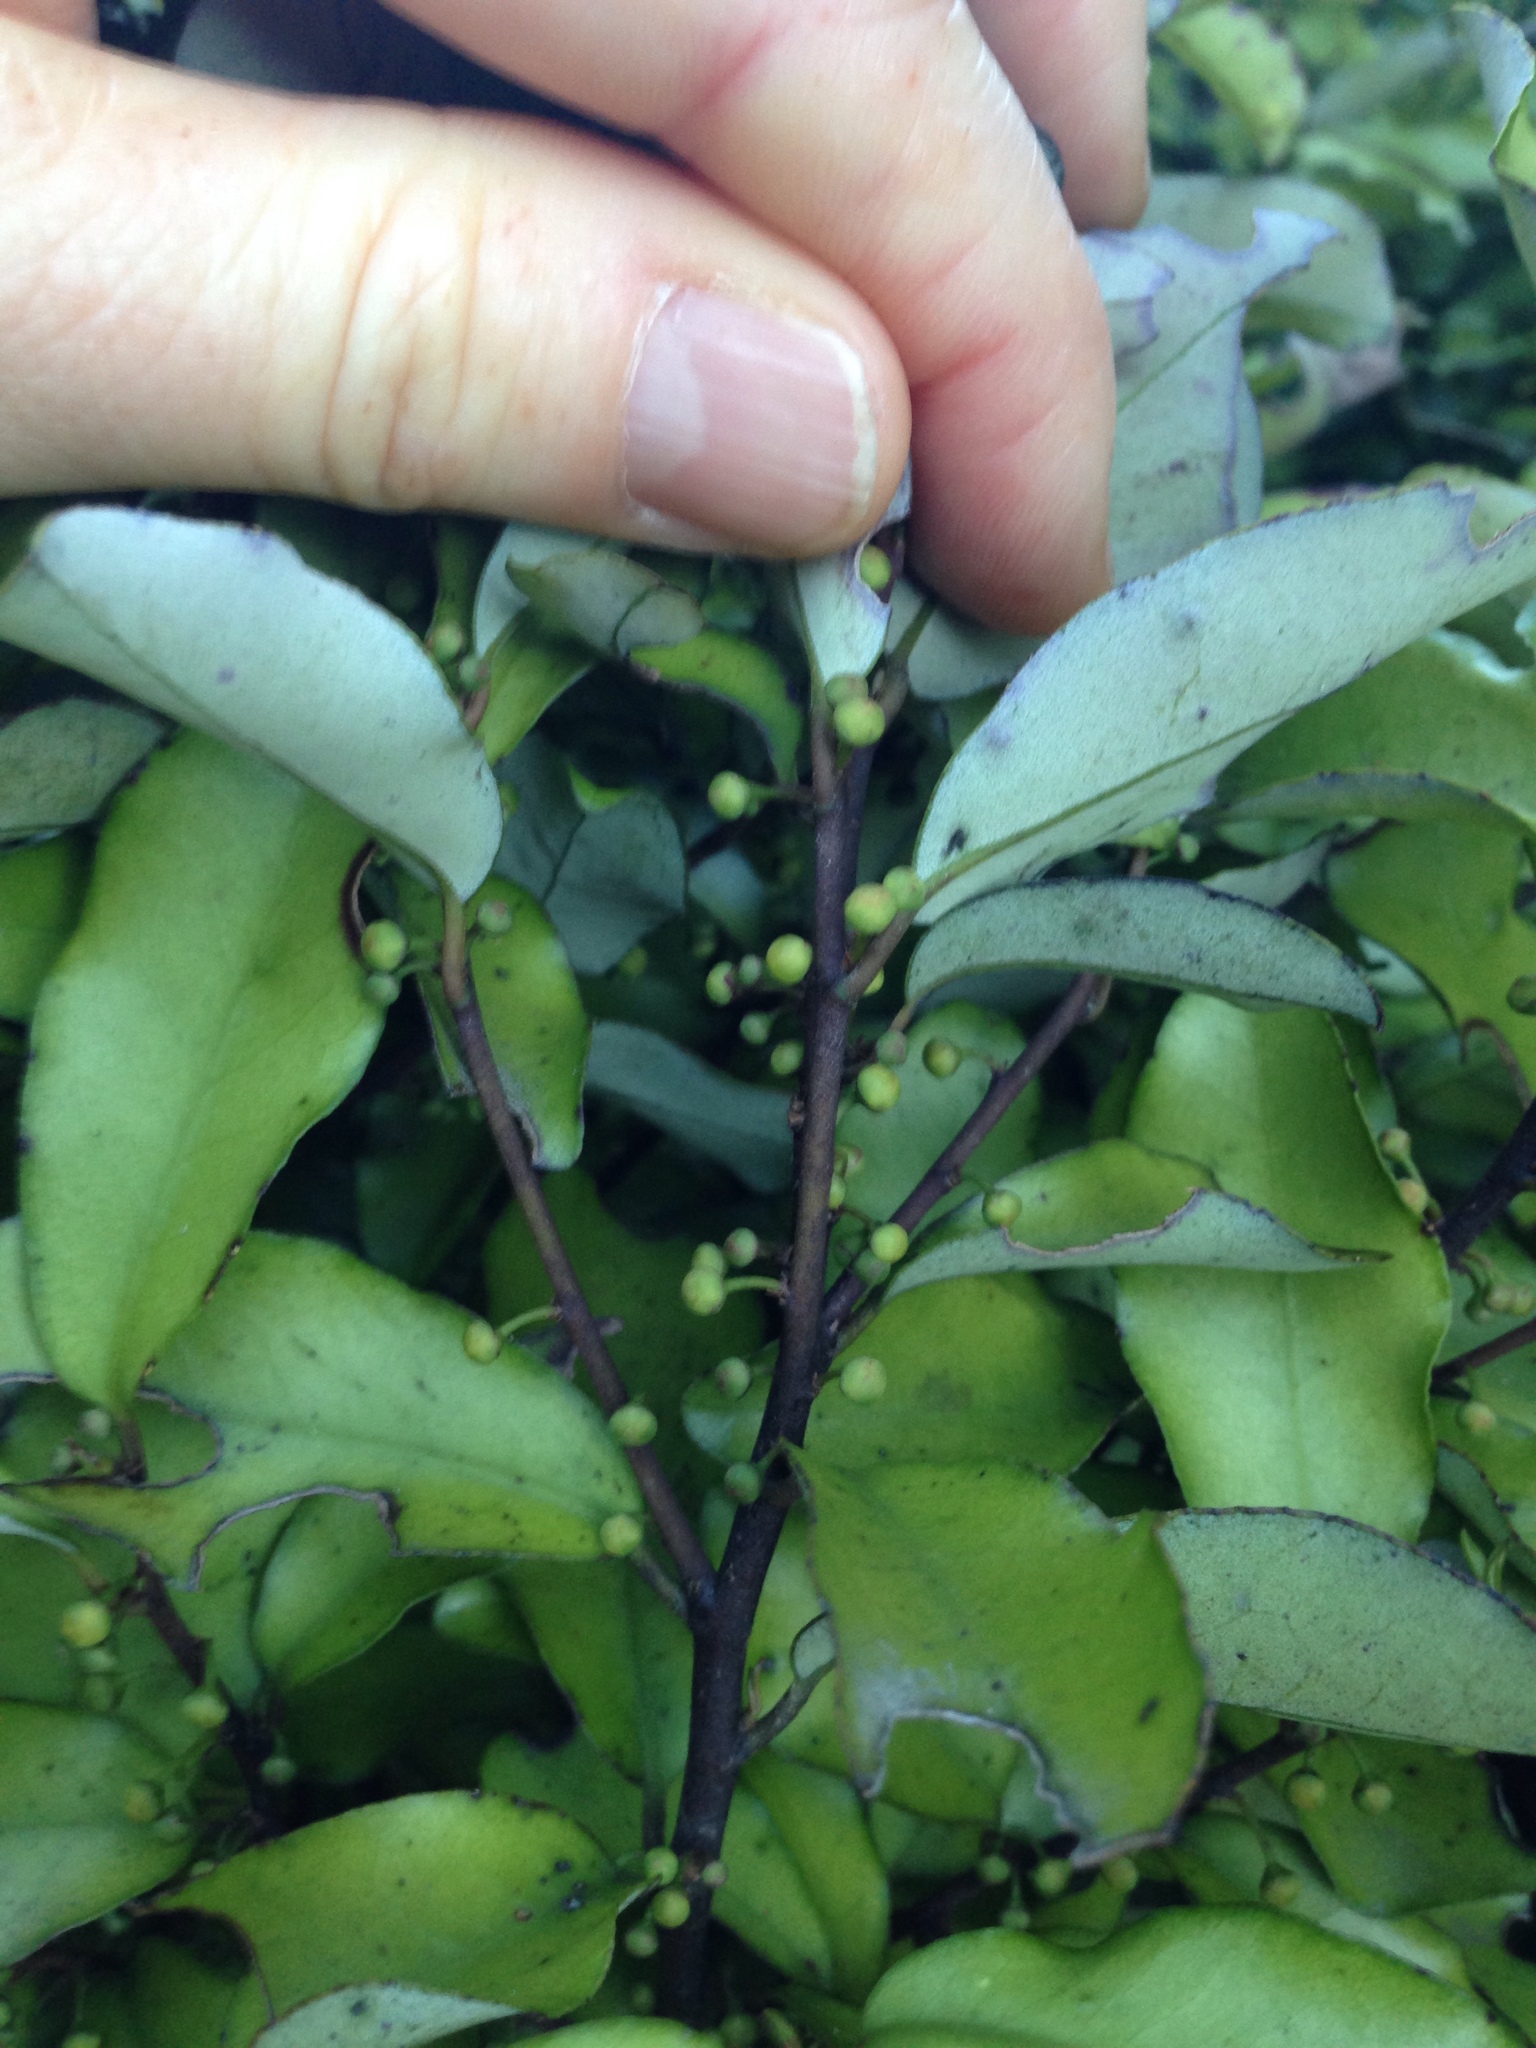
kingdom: Plantae
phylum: Tracheophyta
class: Magnoliopsida
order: Canellales
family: Winteraceae
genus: Pseudowintera
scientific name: Pseudowintera colorata
